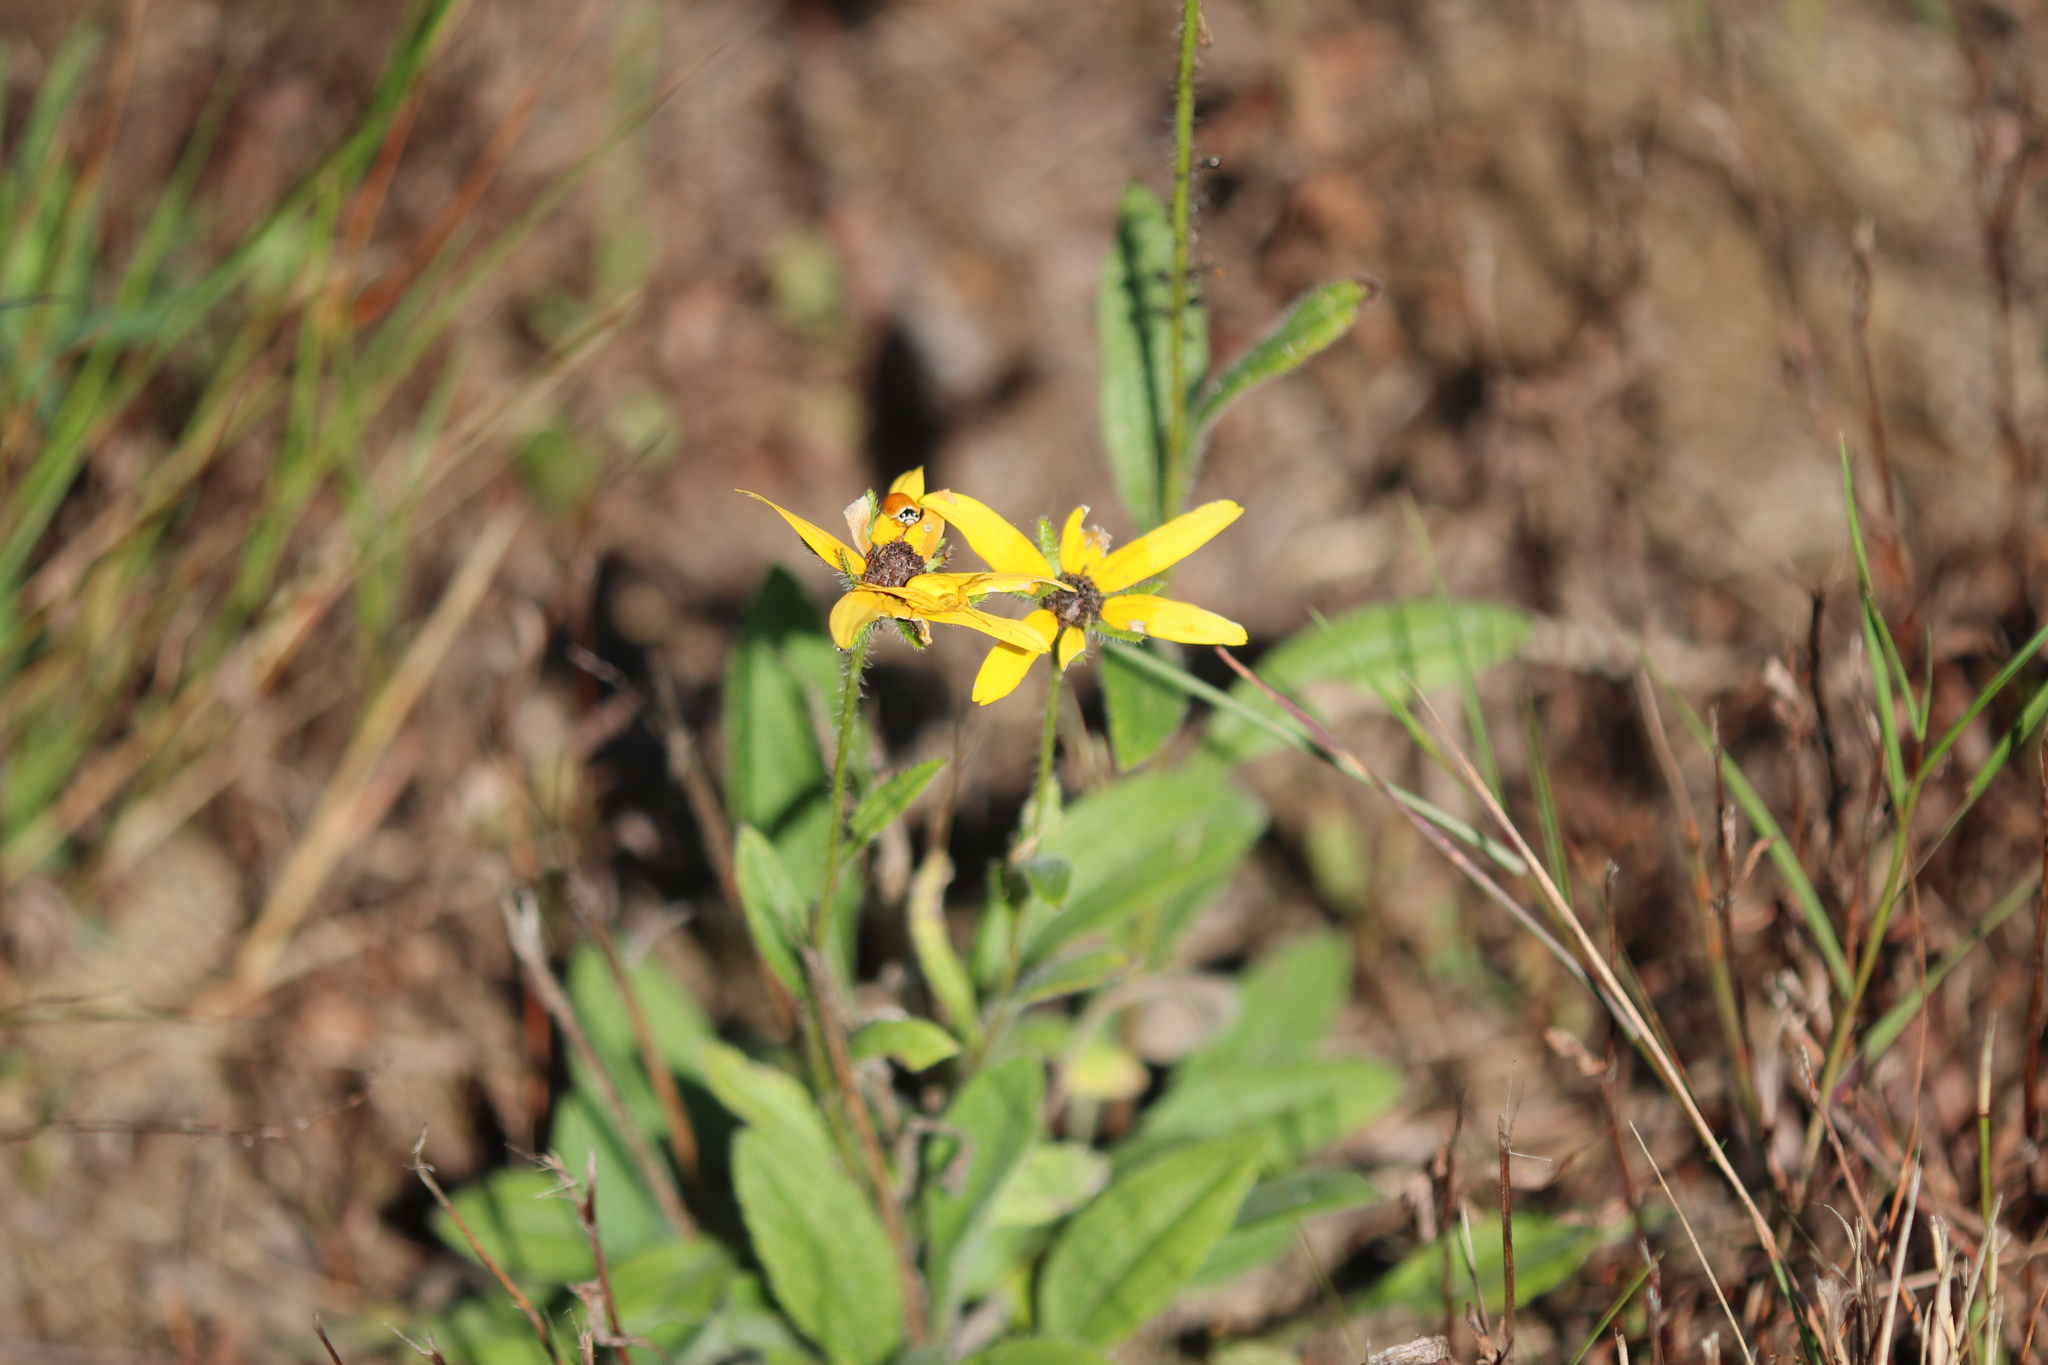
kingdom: Plantae
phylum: Tracheophyta
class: Magnoliopsida
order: Asterales
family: Asteraceae
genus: Rudbeckia
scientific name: Rudbeckia hirta
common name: Black-eyed-susan
